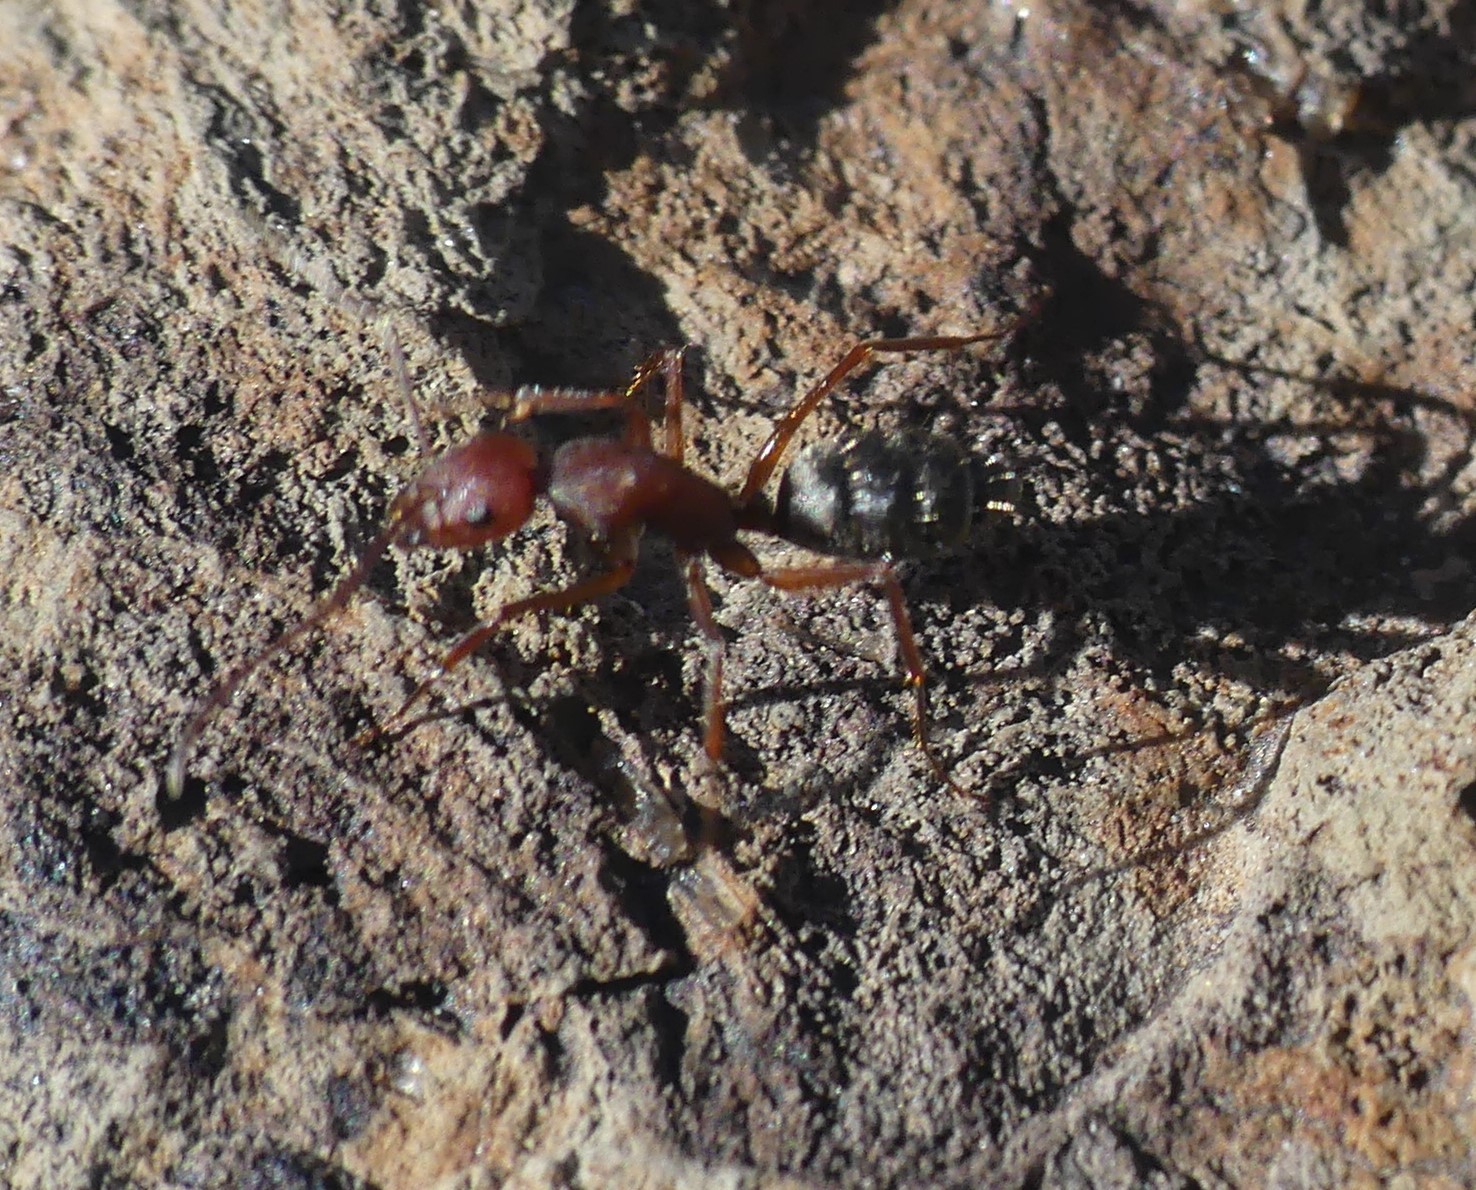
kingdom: Animalia
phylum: Arthropoda
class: Insecta
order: Hymenoptera
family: Formicidae
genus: Camponotus
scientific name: Camponotus feai
